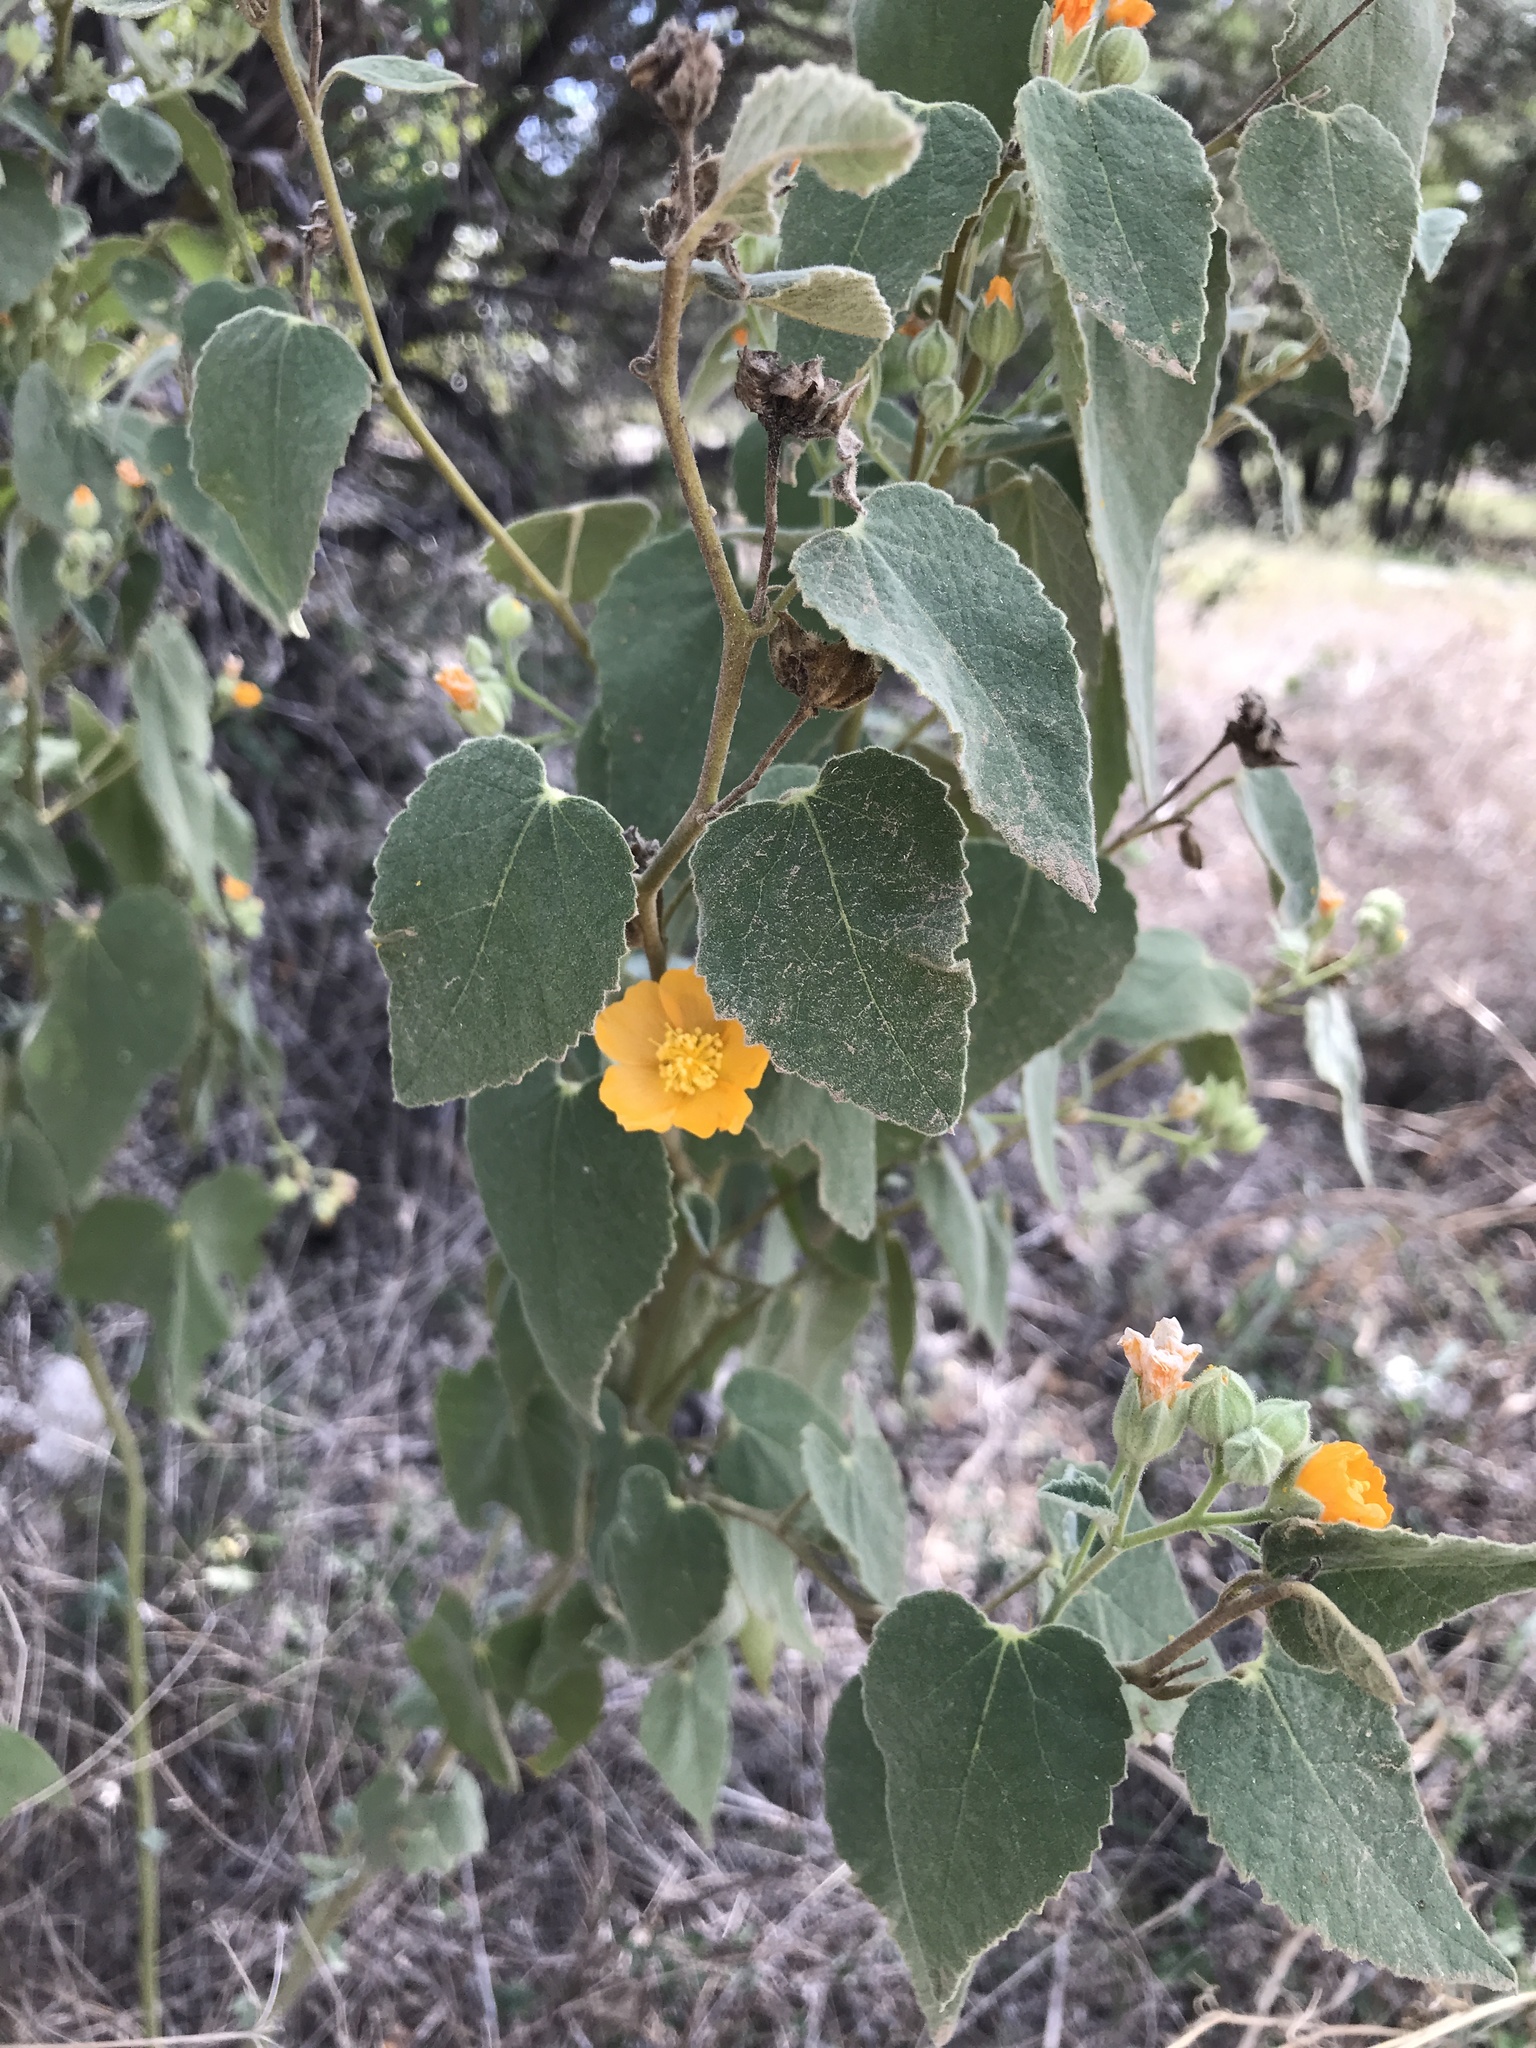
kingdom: Plantae
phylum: Tracheophyta
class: Magnoliopsida
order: Malvales
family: Malvaceae
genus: Allowissadula
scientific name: Allowissadula holosericea
